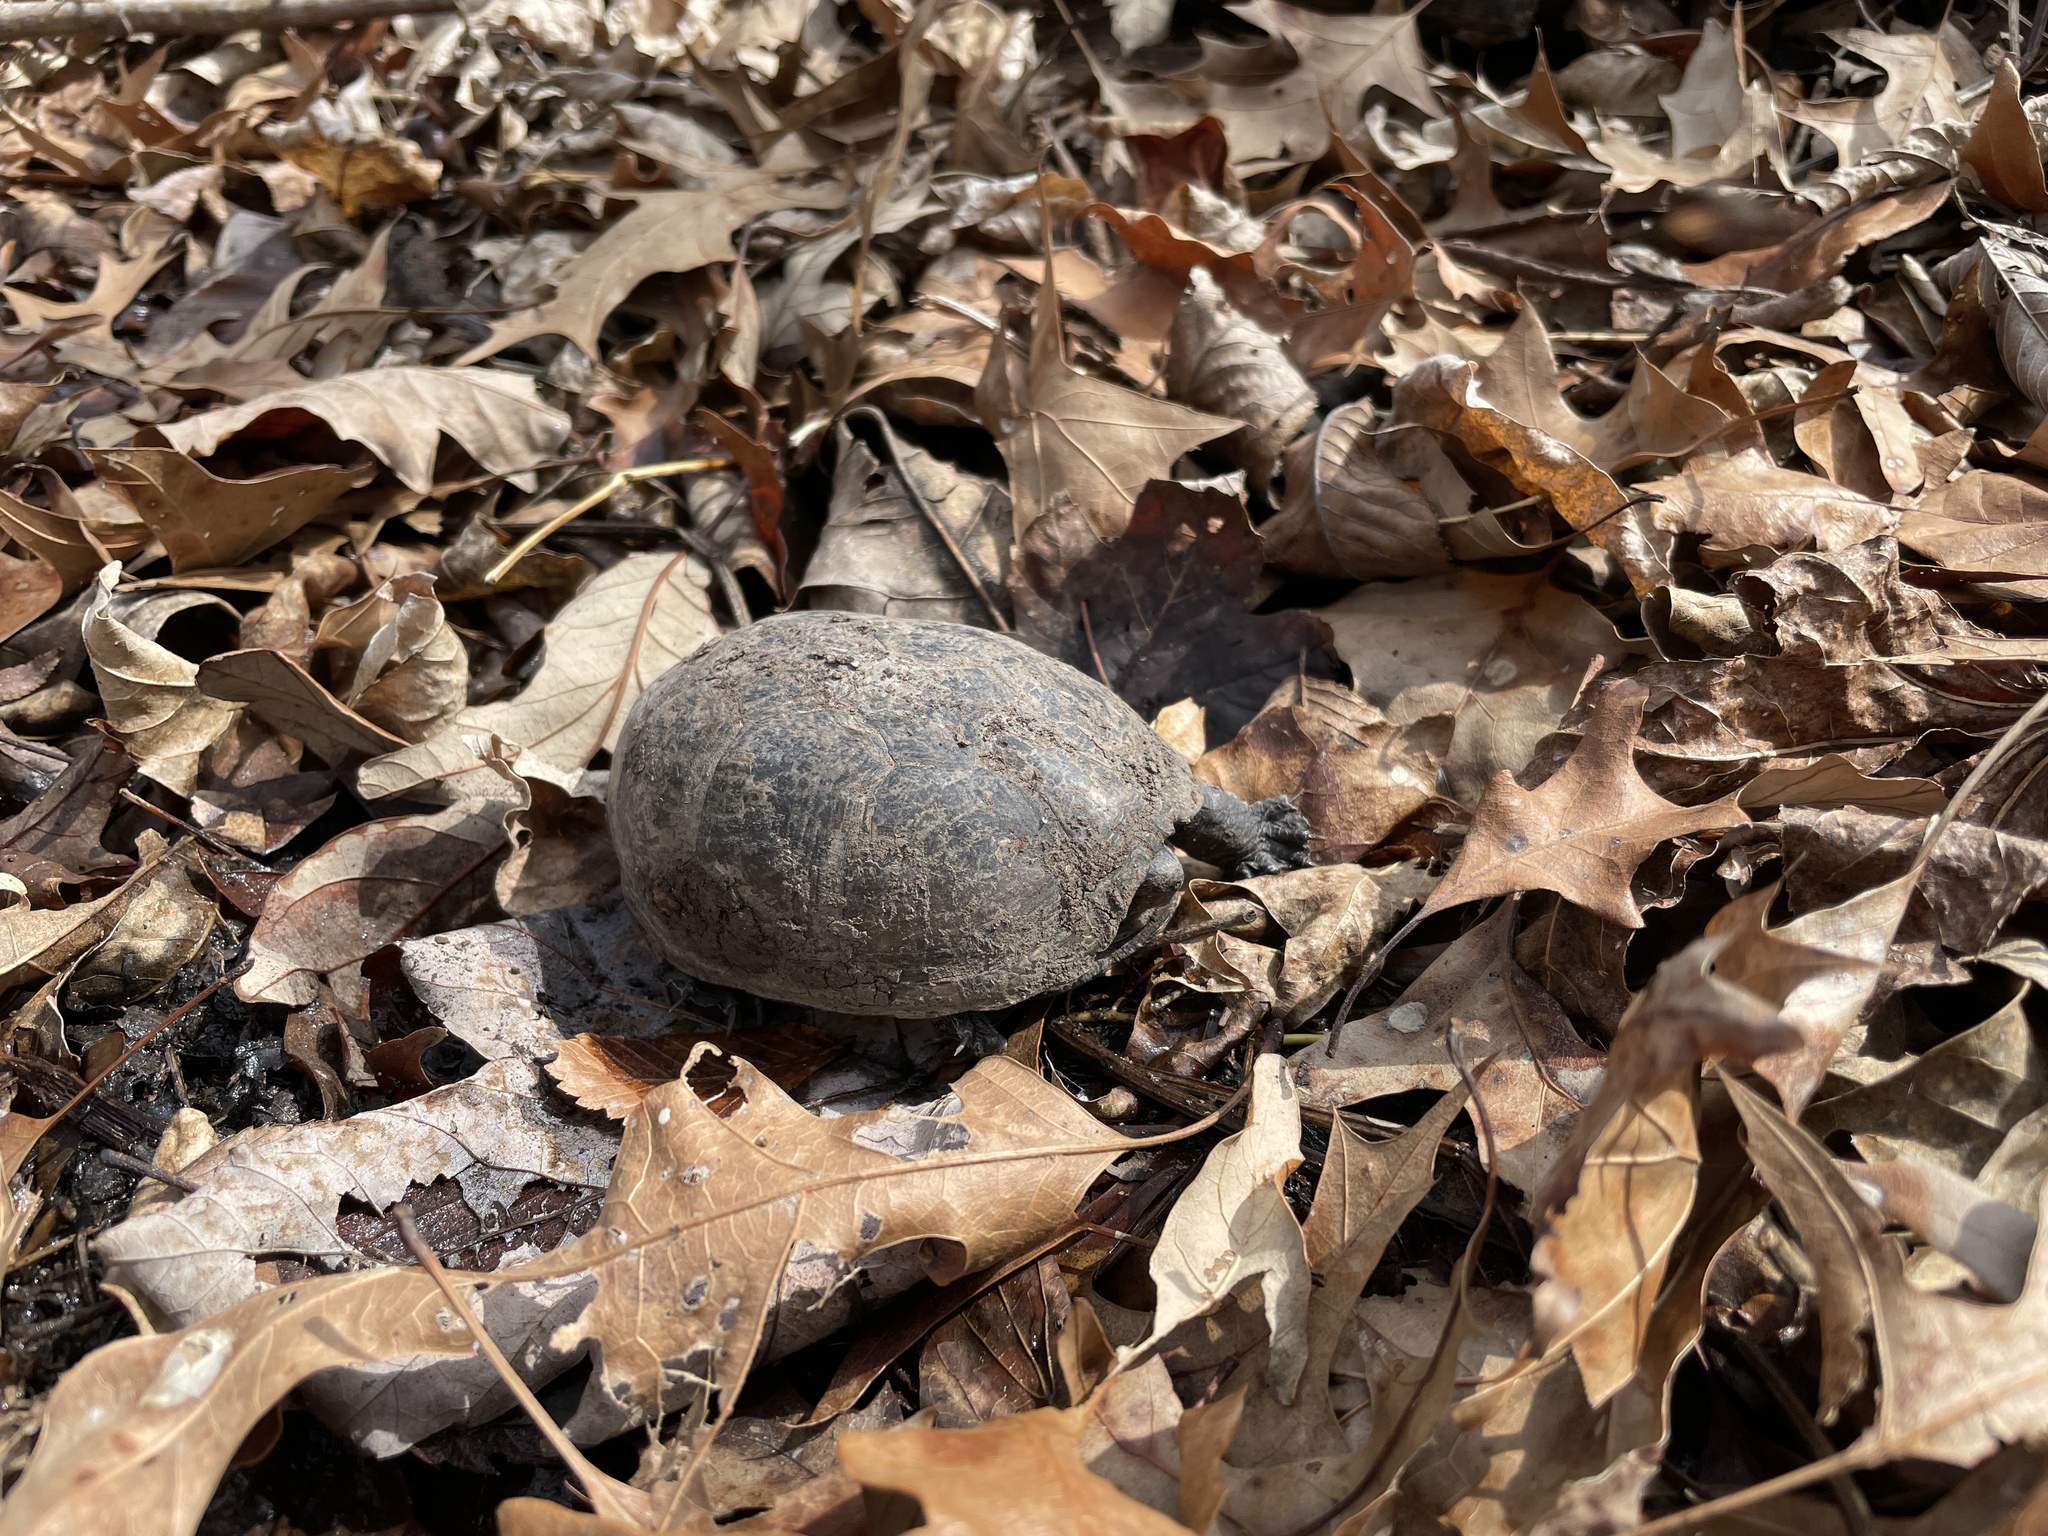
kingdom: Animalia
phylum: Chordata
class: Testudines
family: Kinosternidae
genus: Kinosternon
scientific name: Kinosternon subrubrum
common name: Eastern mud turtle
